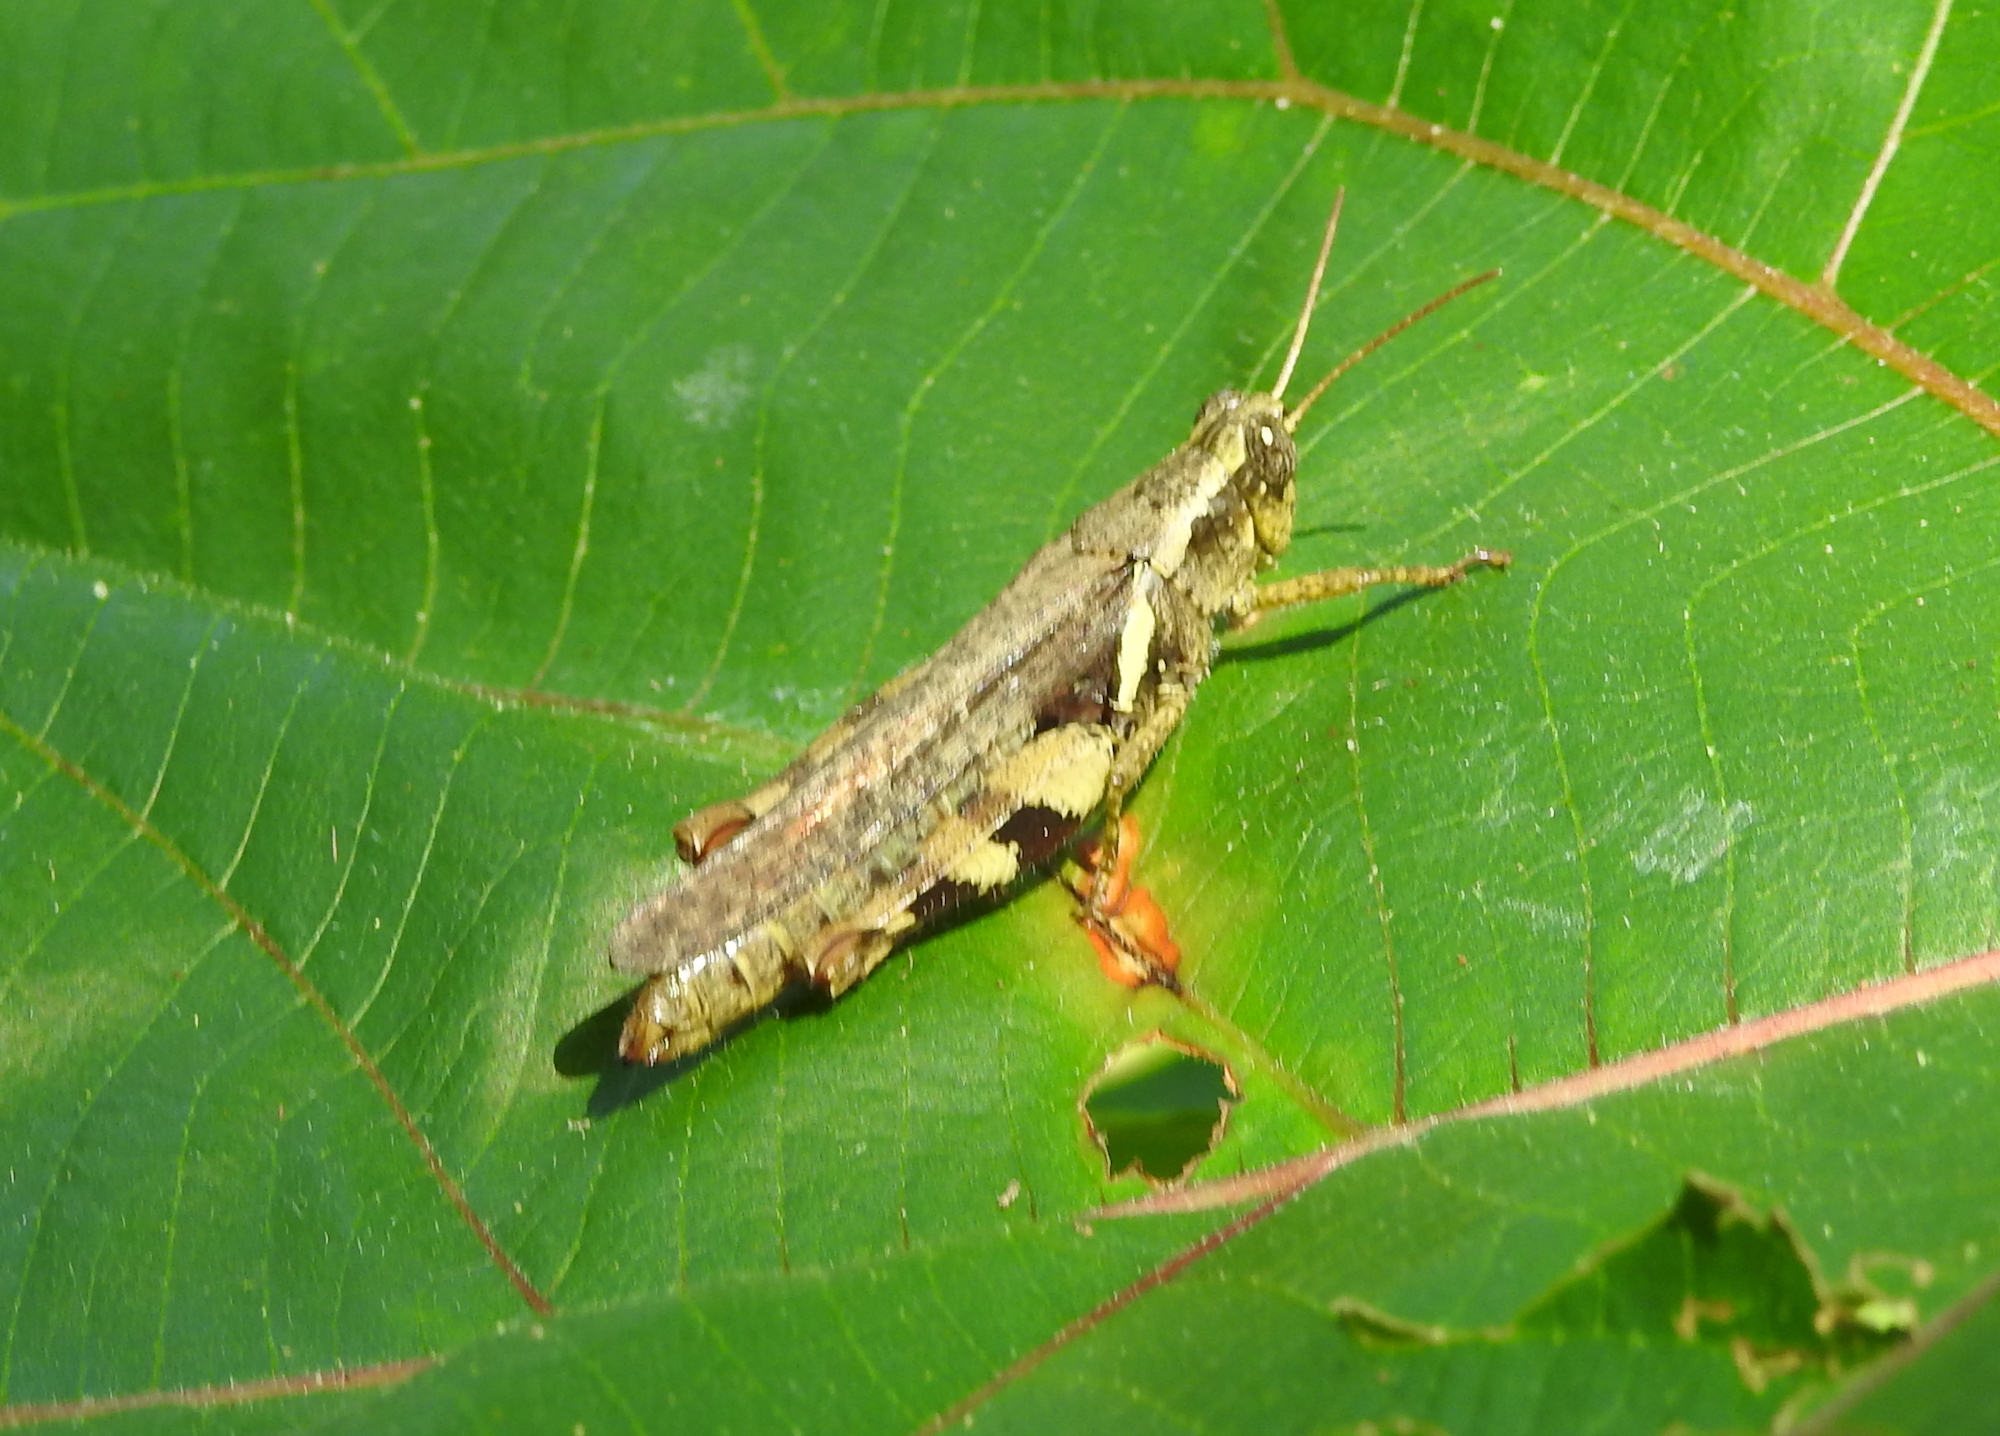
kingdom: Animalia
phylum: Arthropoda
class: Insecta
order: Orthoptera
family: Acrididae
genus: Xenocatantops
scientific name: Xenocatantops humile
